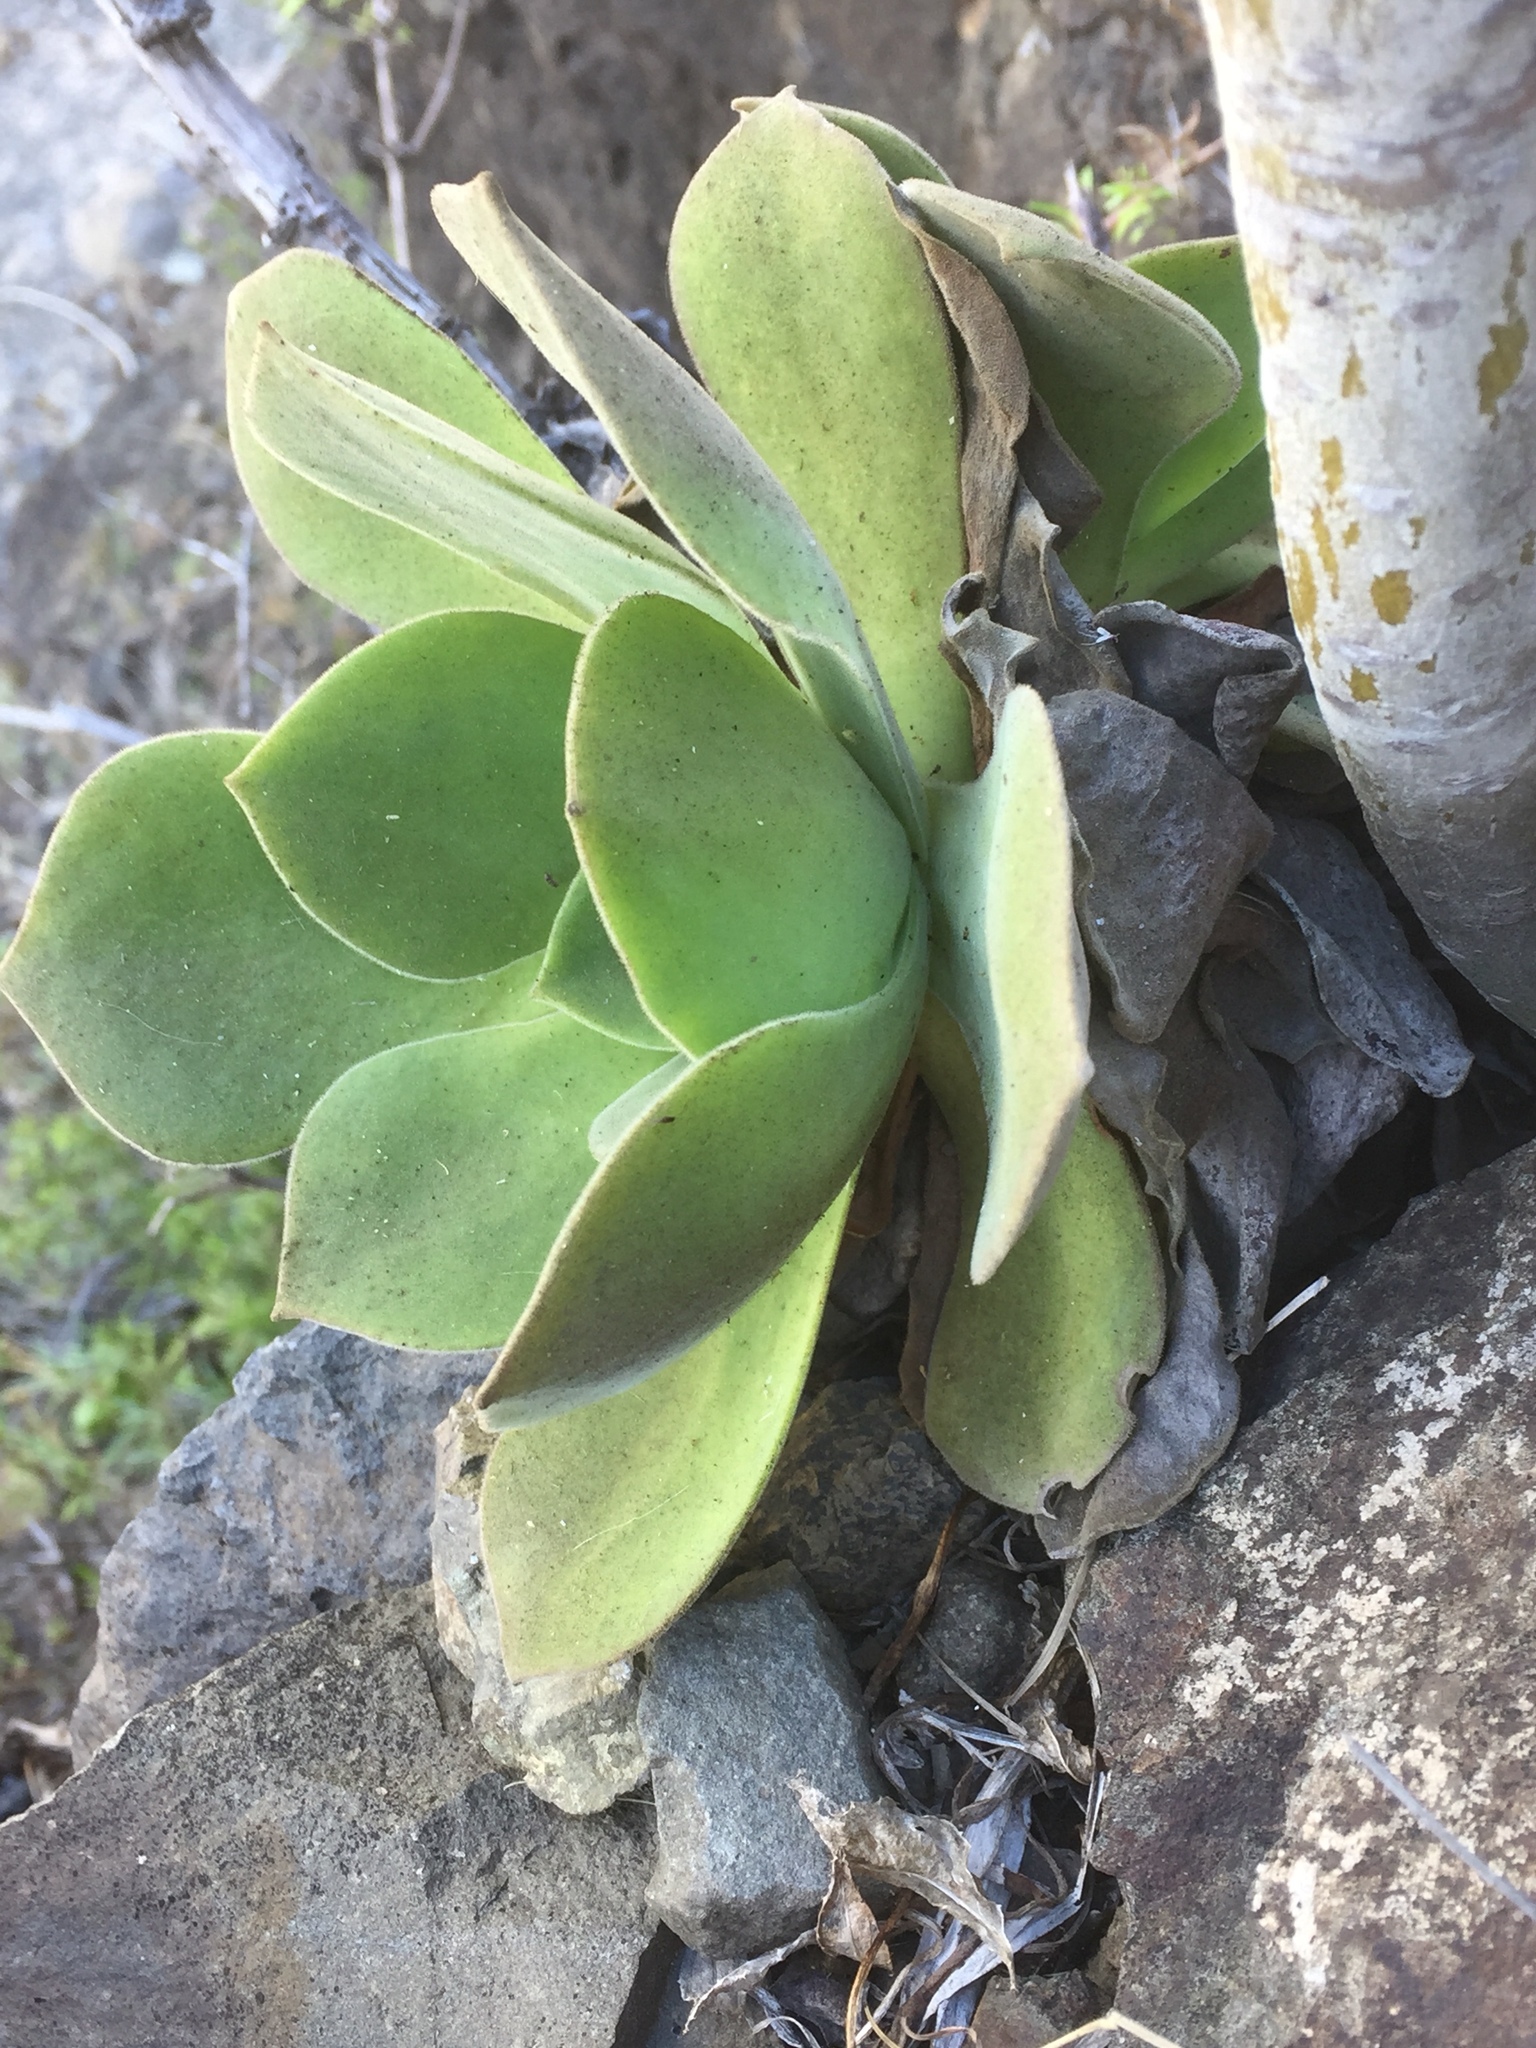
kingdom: Plantae
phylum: Tracheophyta
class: Magnoliopsida
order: Saxifragales
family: Crassulaceae
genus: Aeonium
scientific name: Aeonium canariense
